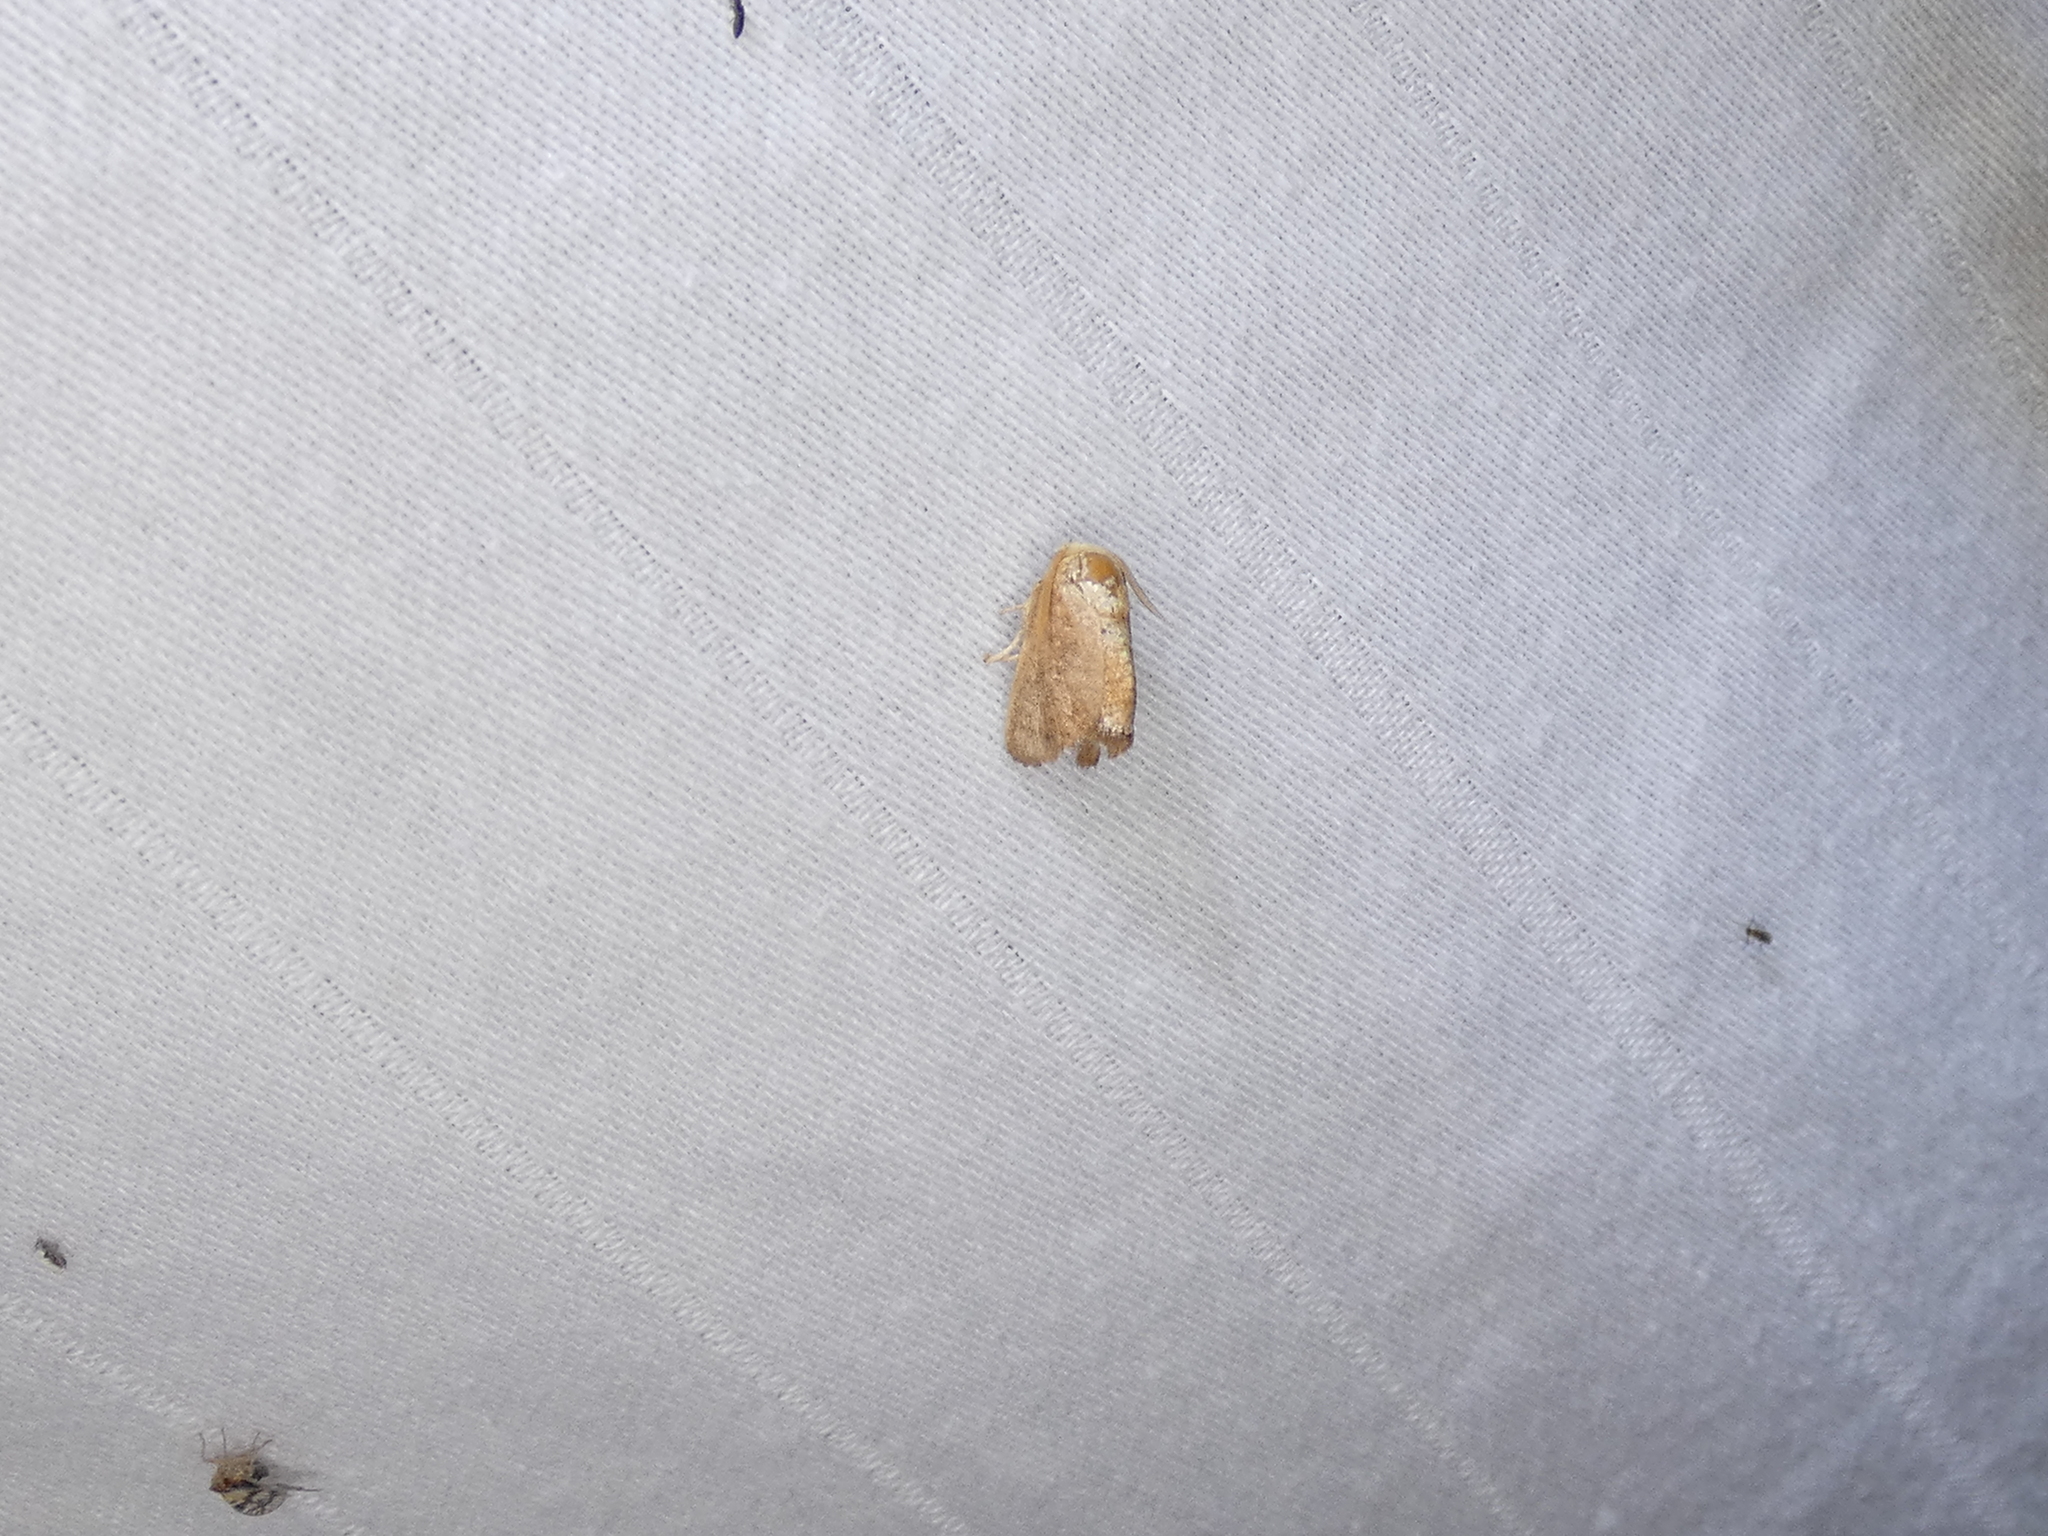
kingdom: Animalia
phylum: Arthropoda
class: Insecta
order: Lepidoptera
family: Limacodidae
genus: Isa
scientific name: Isa textula
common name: Crowned slug moth
